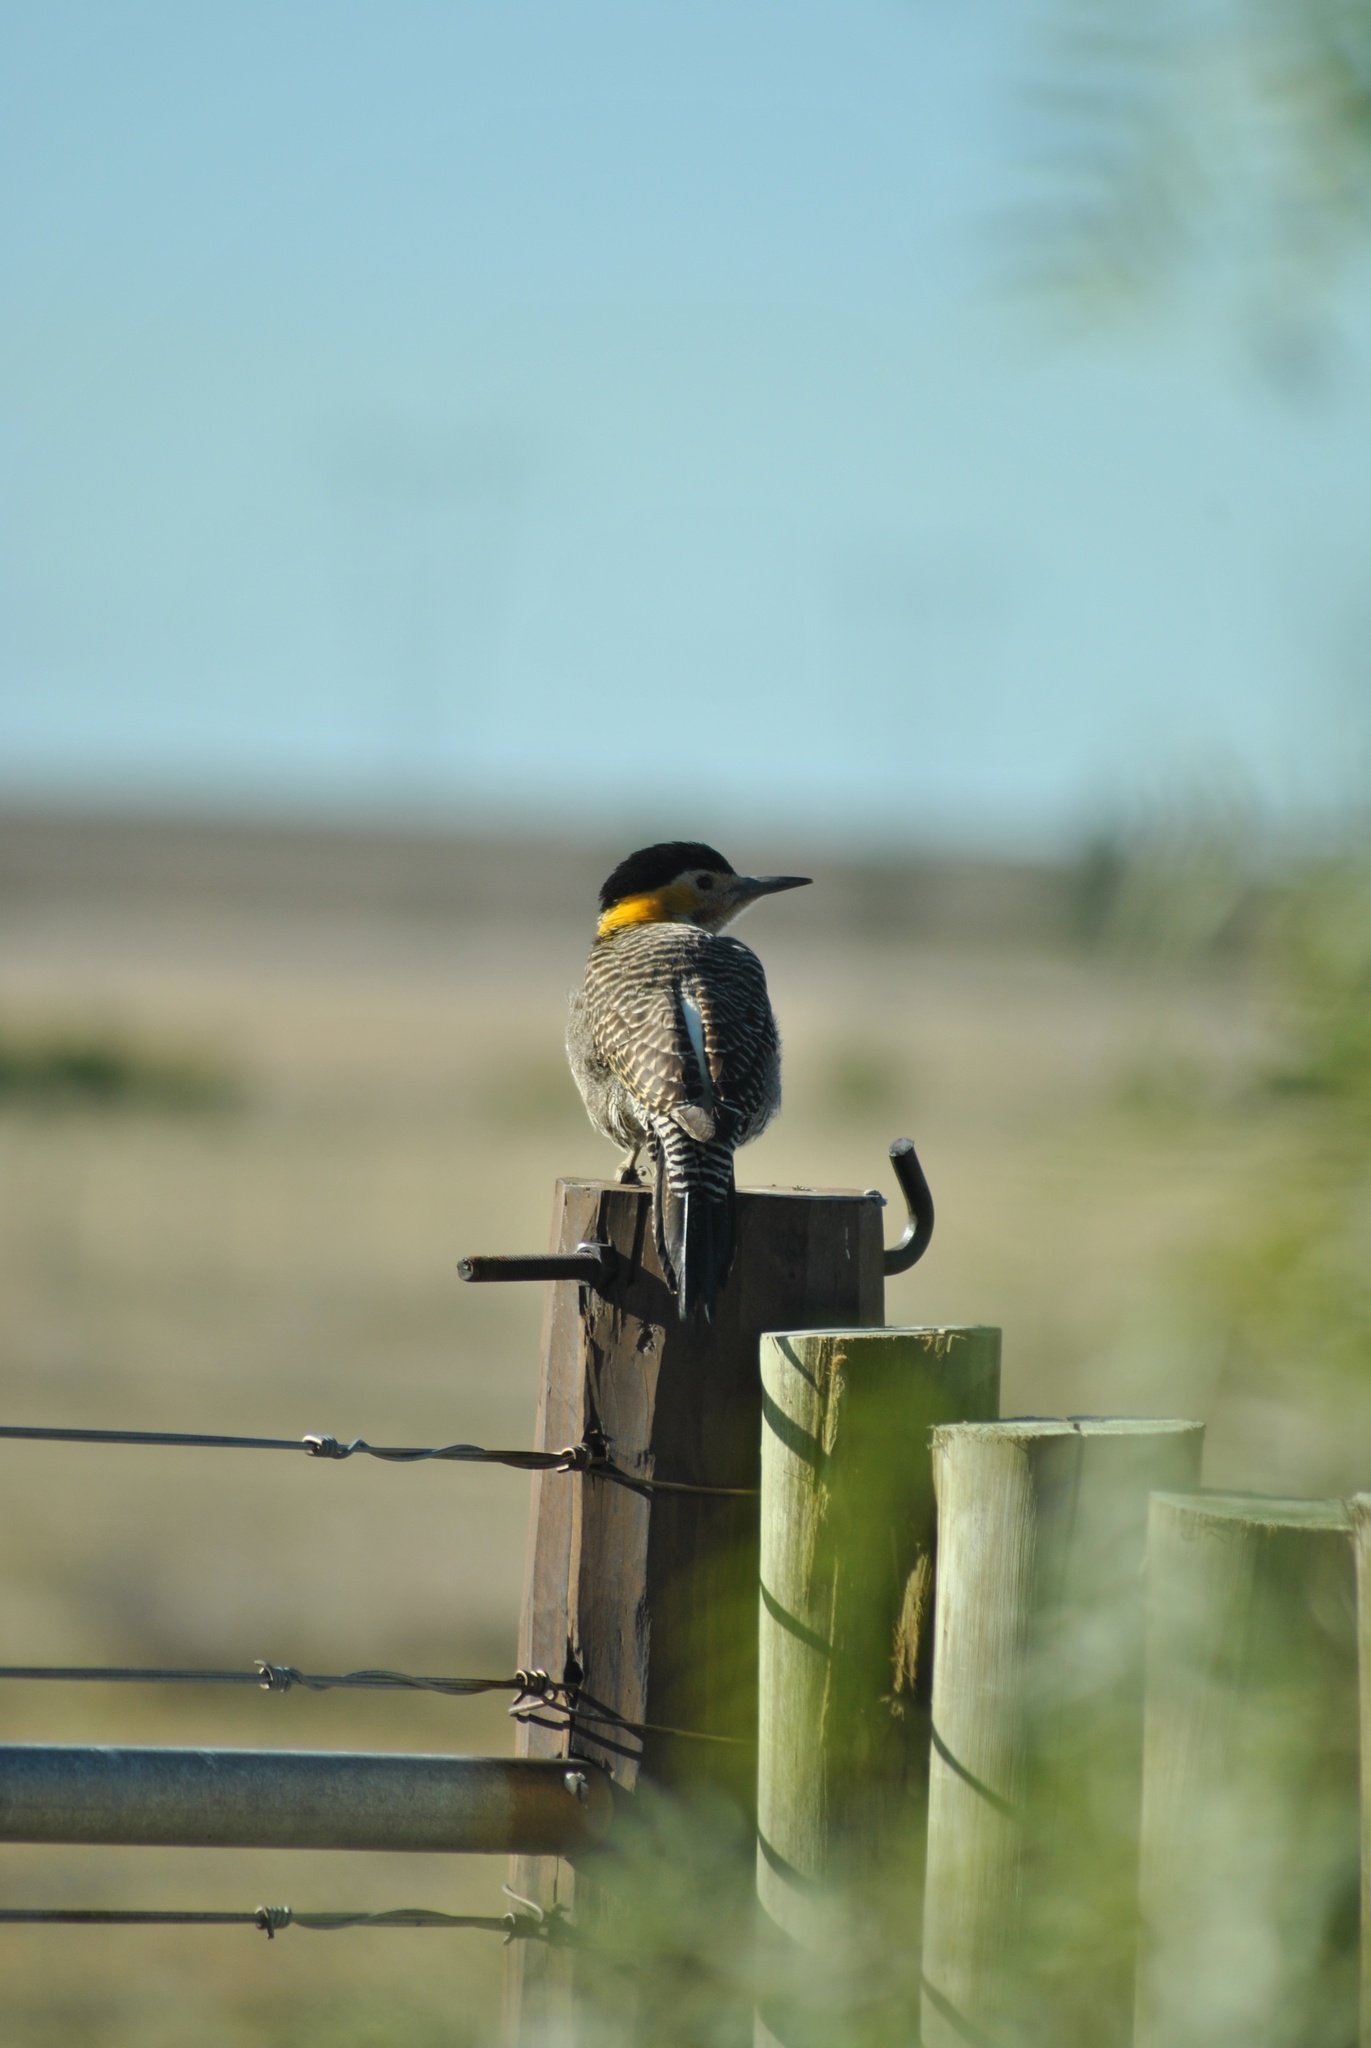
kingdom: Animalia
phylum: Chordata
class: Aves
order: Piciformes
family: Picidae
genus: Colaptes
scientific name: Colaptes campestris
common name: Campo flicker
